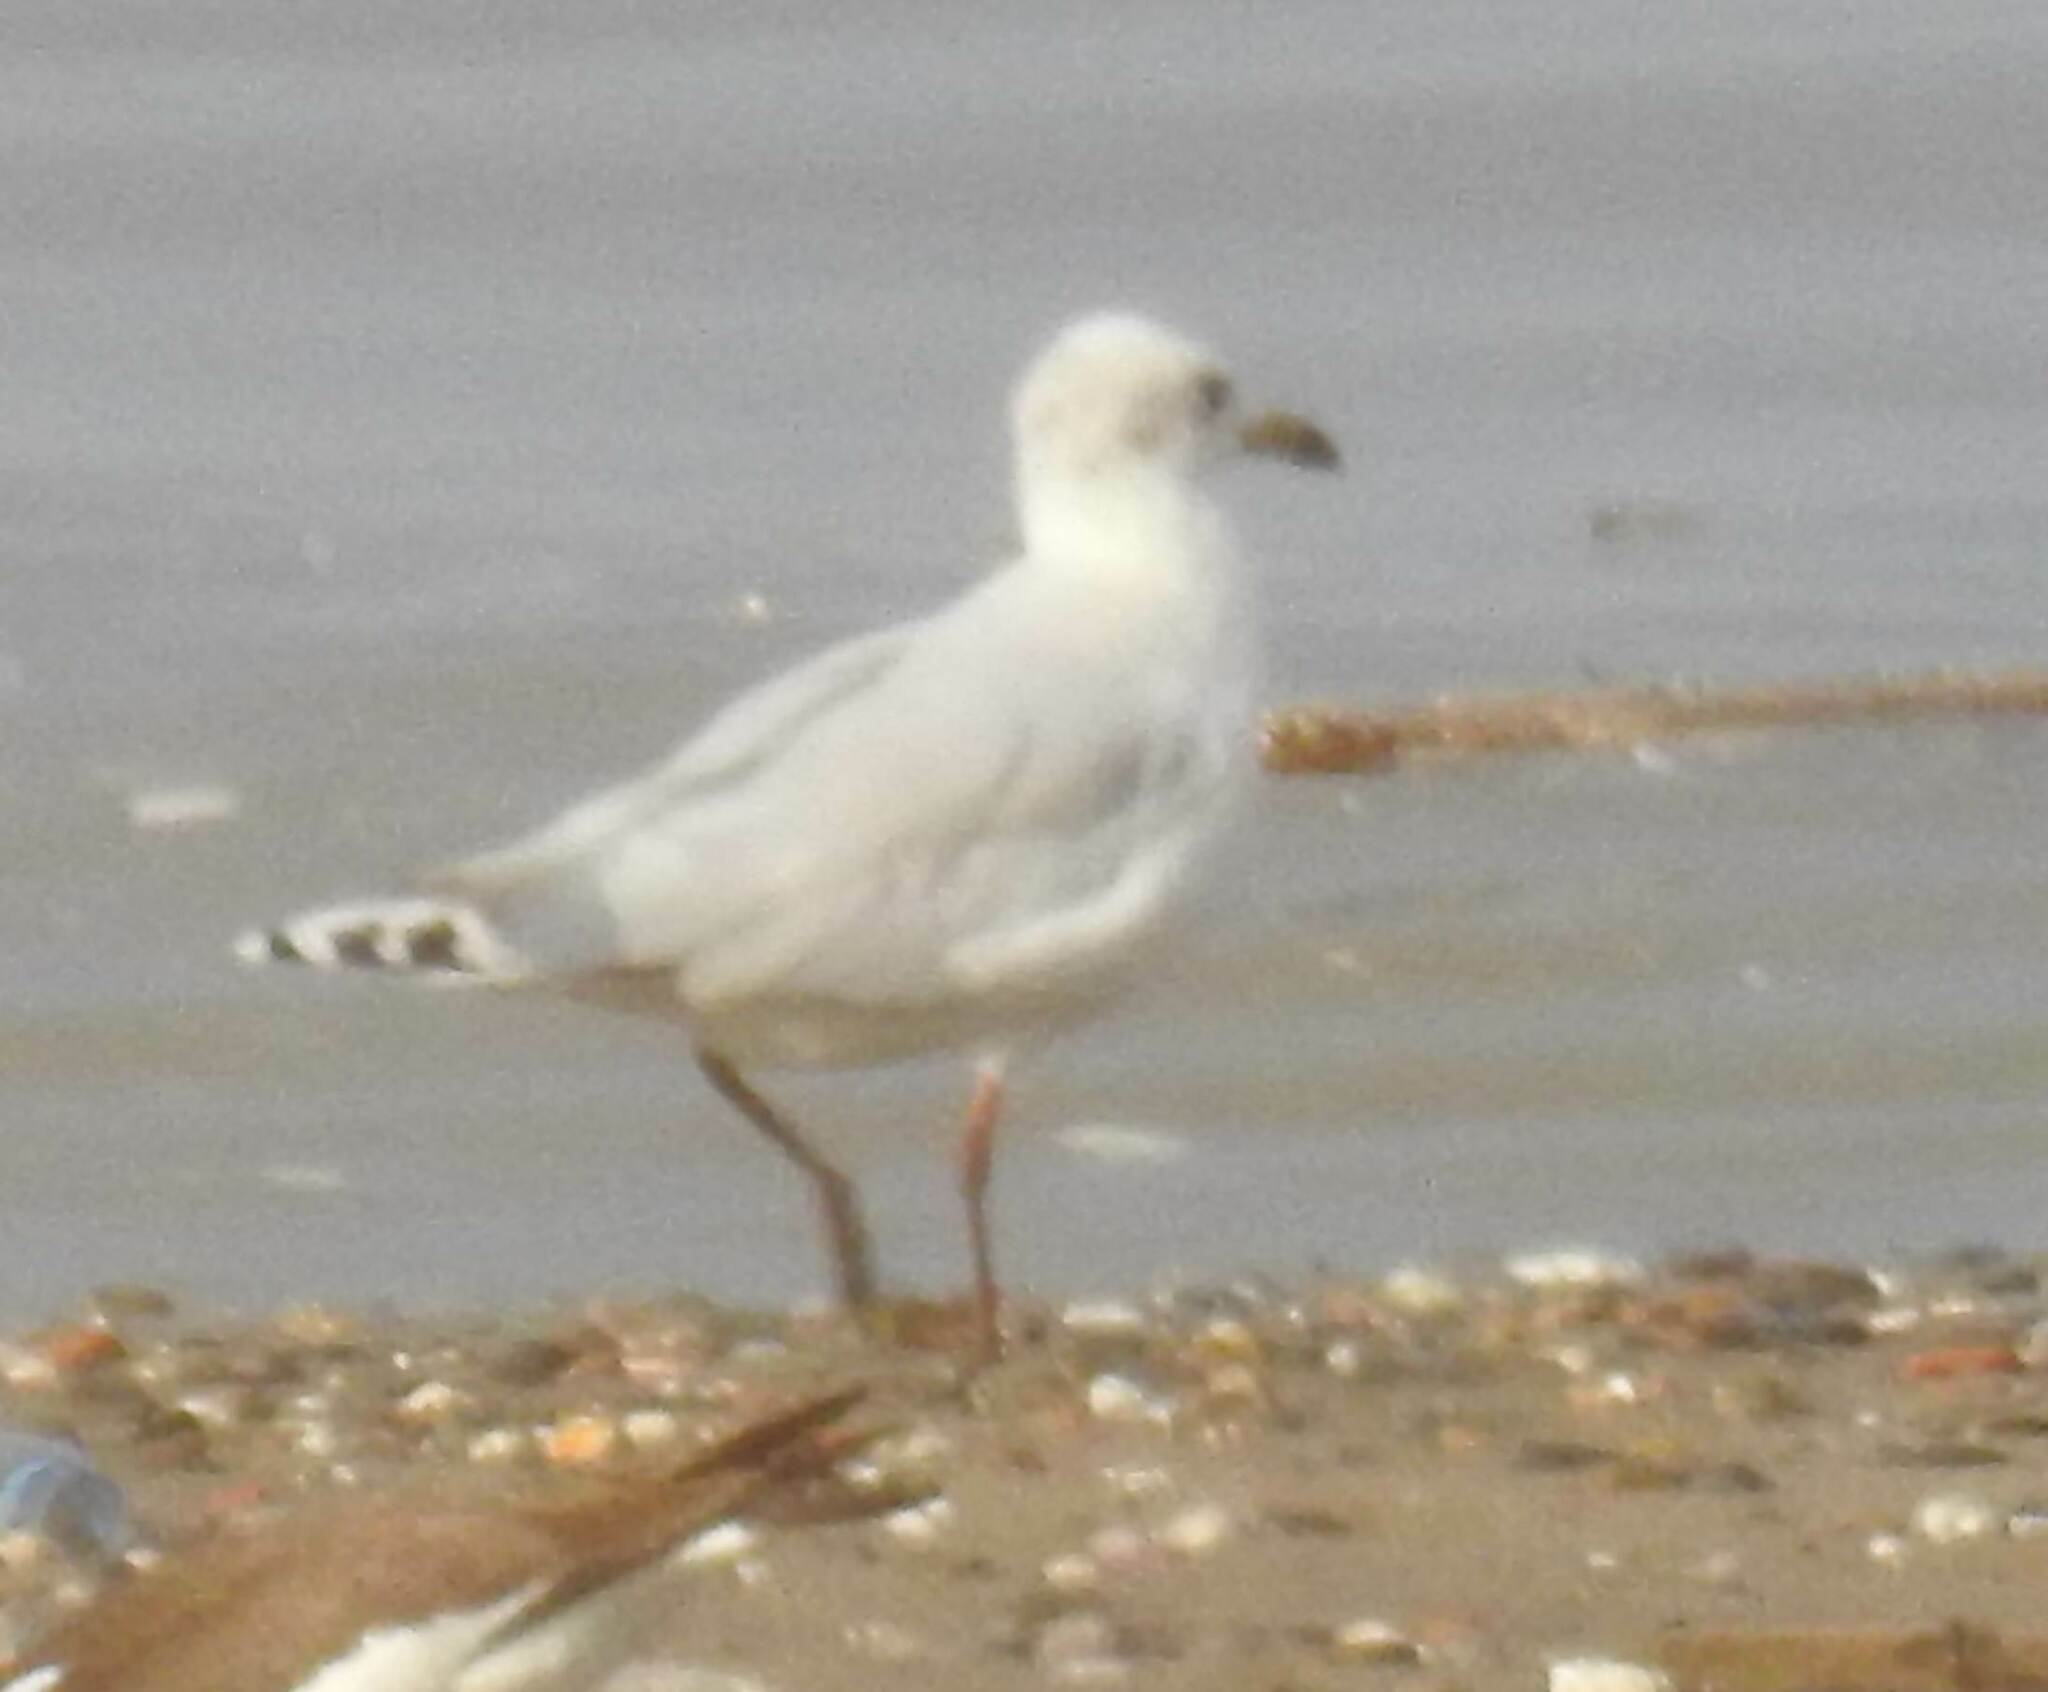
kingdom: Animalia
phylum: Chordata
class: Aves
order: Charadriiformes
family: Laridae
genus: Ichthyaetus
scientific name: Ichthyaetus melanocephalus
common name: Mediterranean gull
